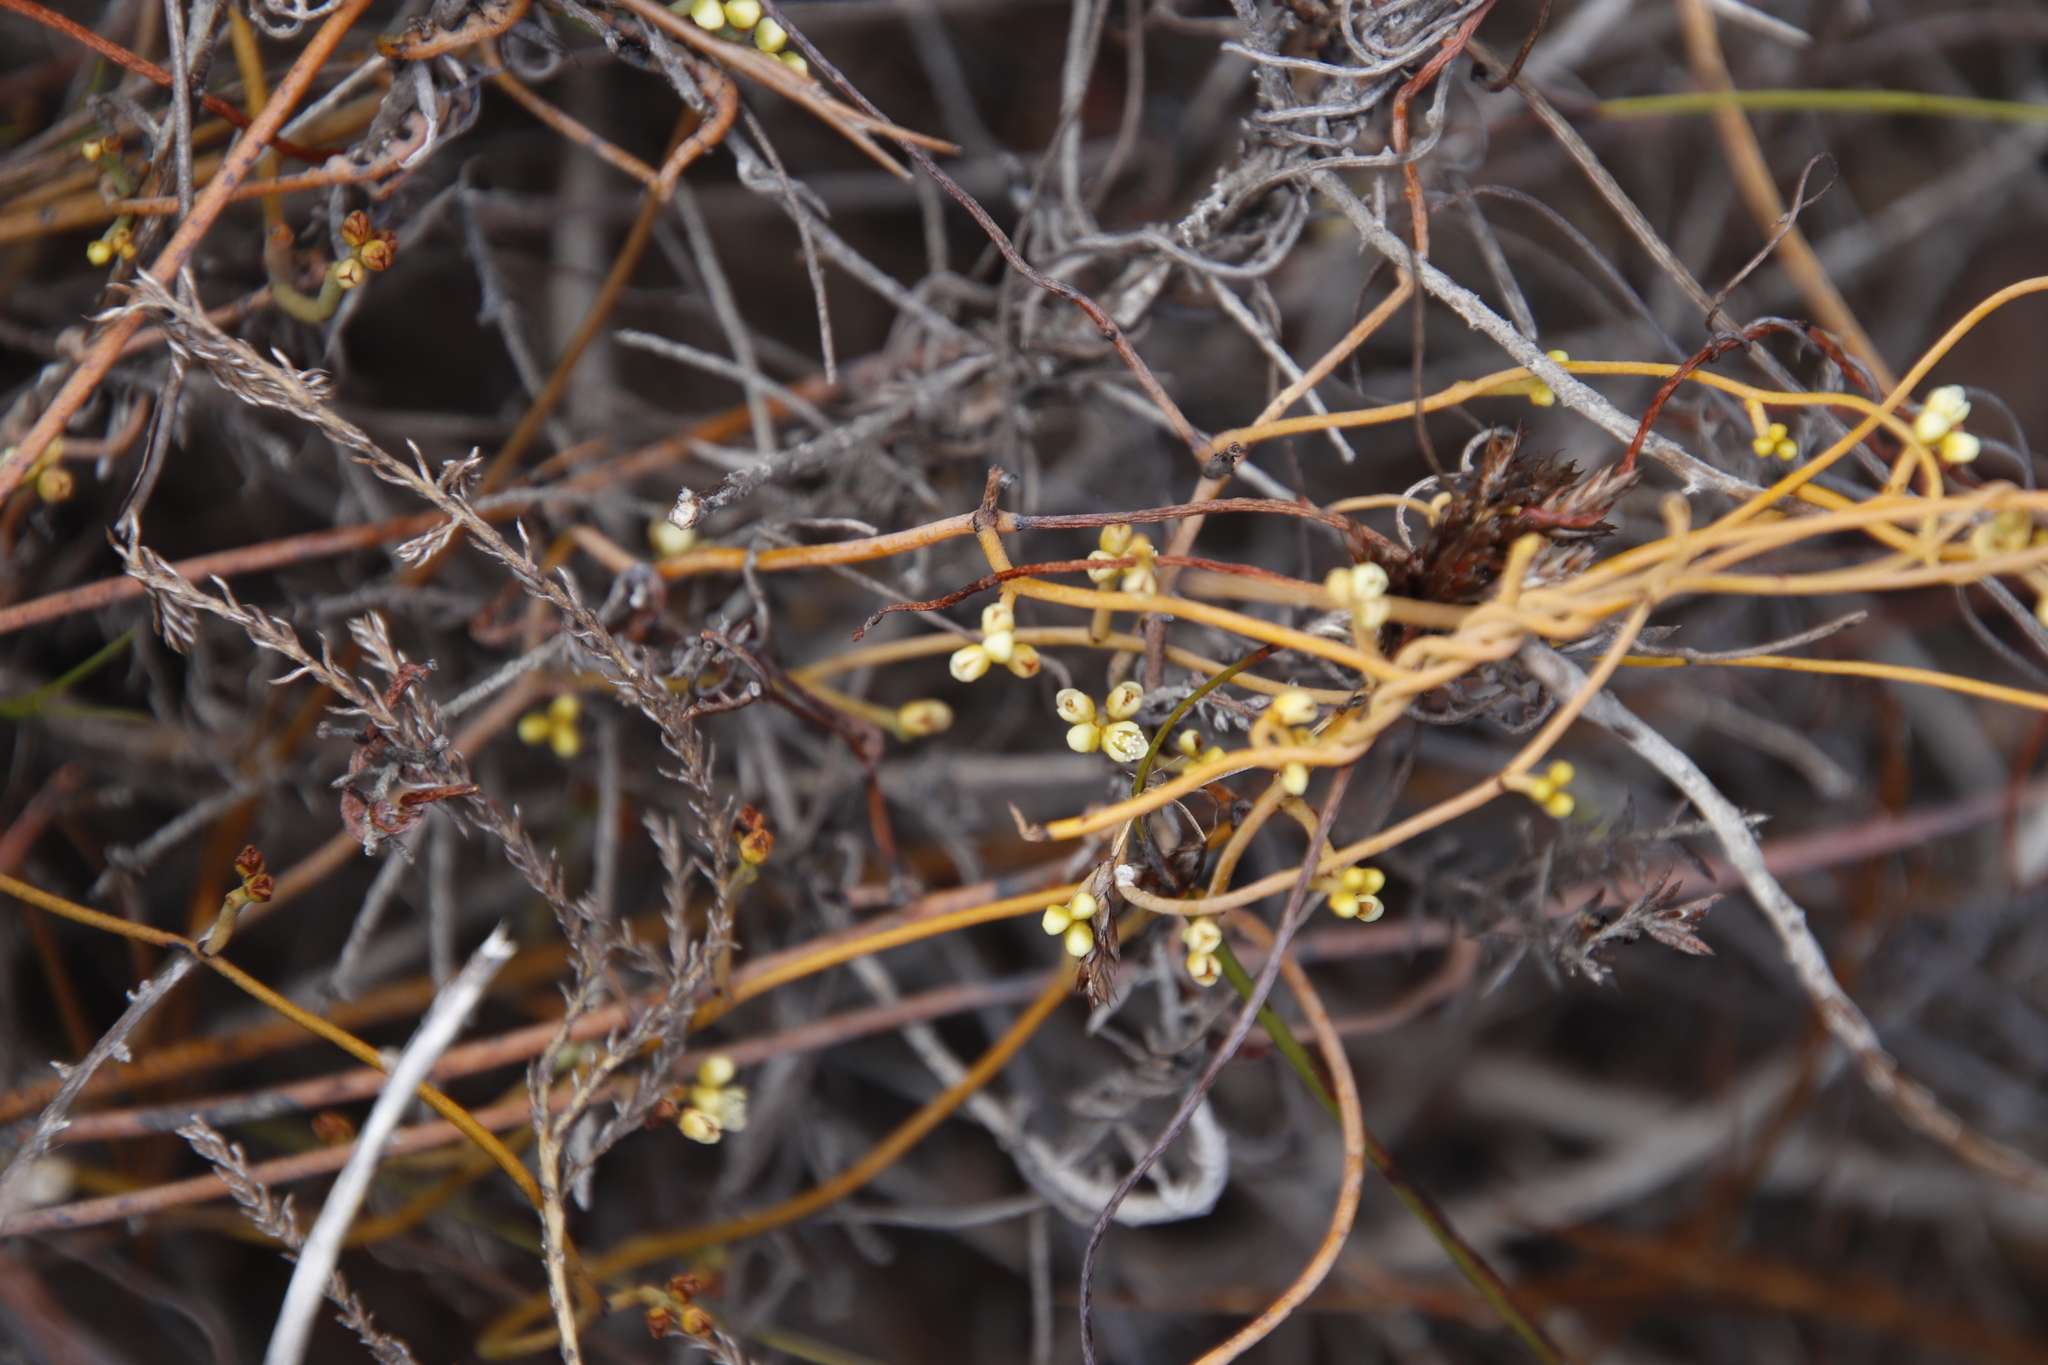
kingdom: Plantae
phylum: Tracheophyta
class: Magnoliopsida
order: Laurales
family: Lauraceae
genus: Cassytha
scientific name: Cassytha ciliolata
